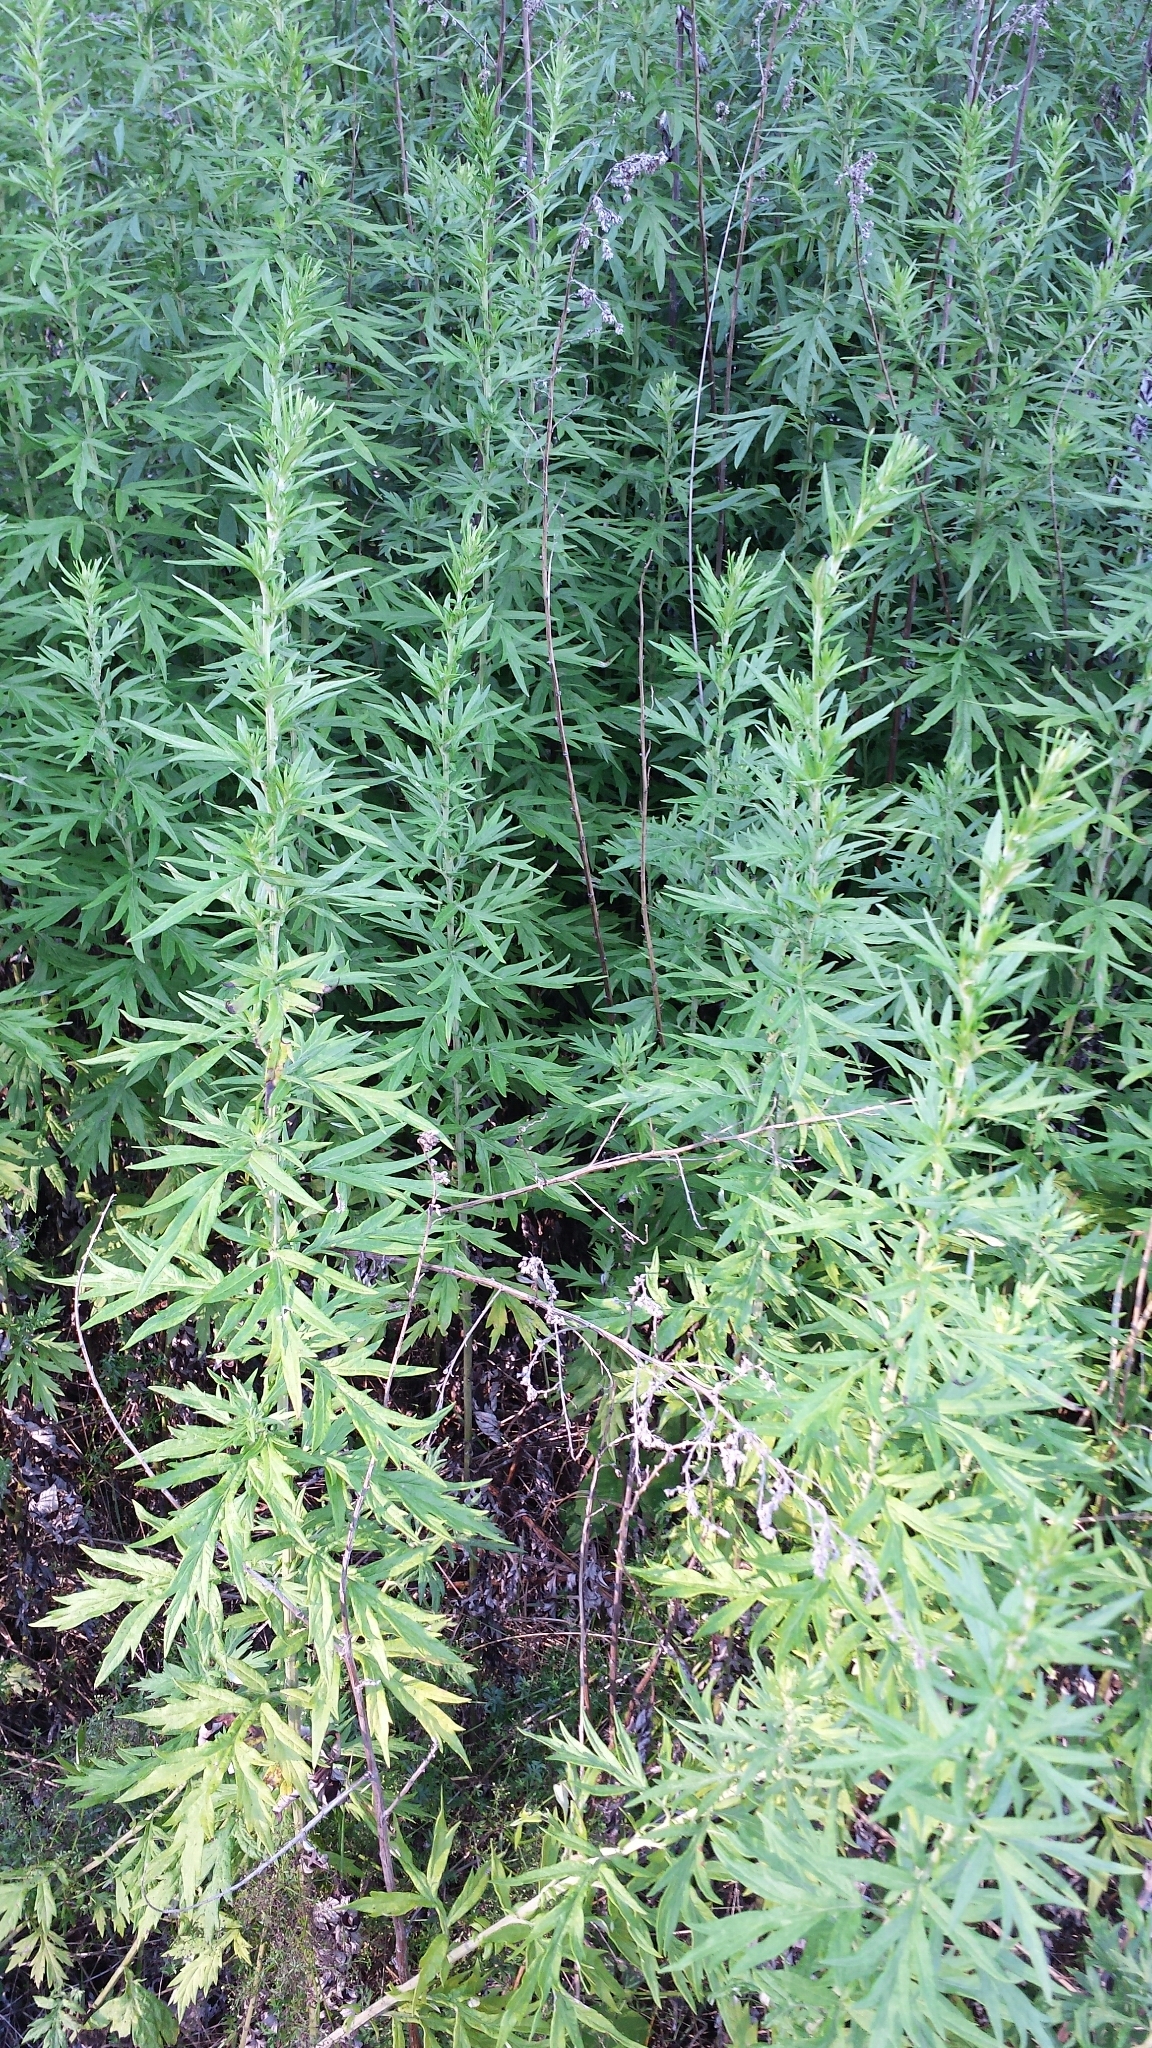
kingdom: Plantae
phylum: Tracheophyta
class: Magnoliopsida
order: Asterales
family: Asteraceae
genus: Artemisia
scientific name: Artemisia vulgaris
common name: Mugwort
